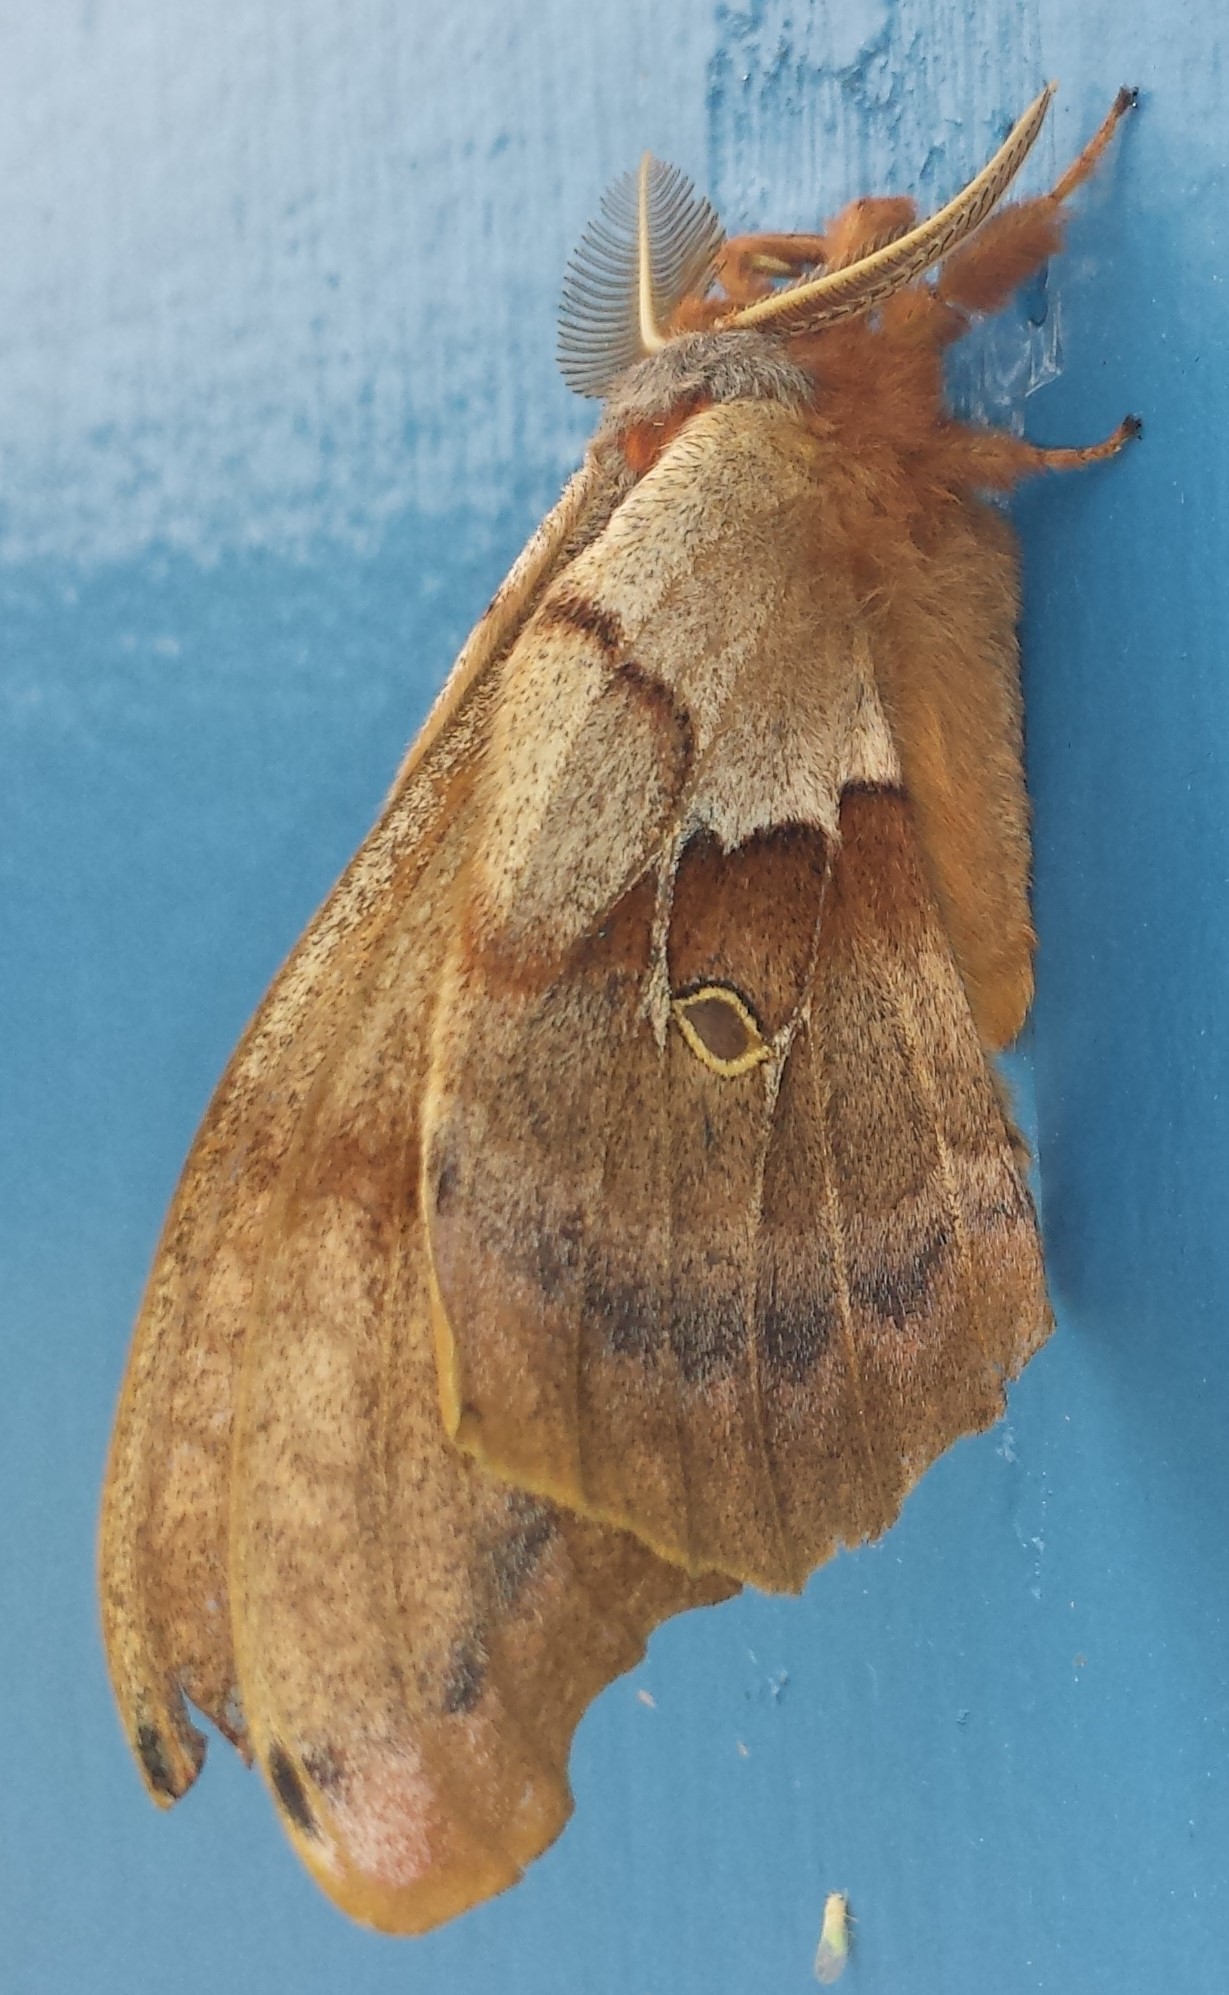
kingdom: Animalia
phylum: Arthropoda
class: Insecta
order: Lepidoptera
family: Saturniidae
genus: Antheraea
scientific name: Antheraea polyphemus
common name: Polyphemus moth
